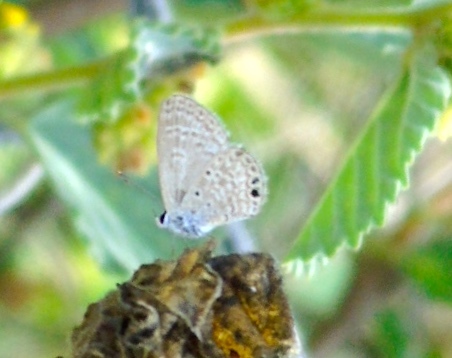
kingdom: Animalia
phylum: Arthropoda
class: Insecta
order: Lepidoptera
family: Lycaenidae
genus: Hemiargus
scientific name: Hemiargus ceraunus
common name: Ceraunus blue
